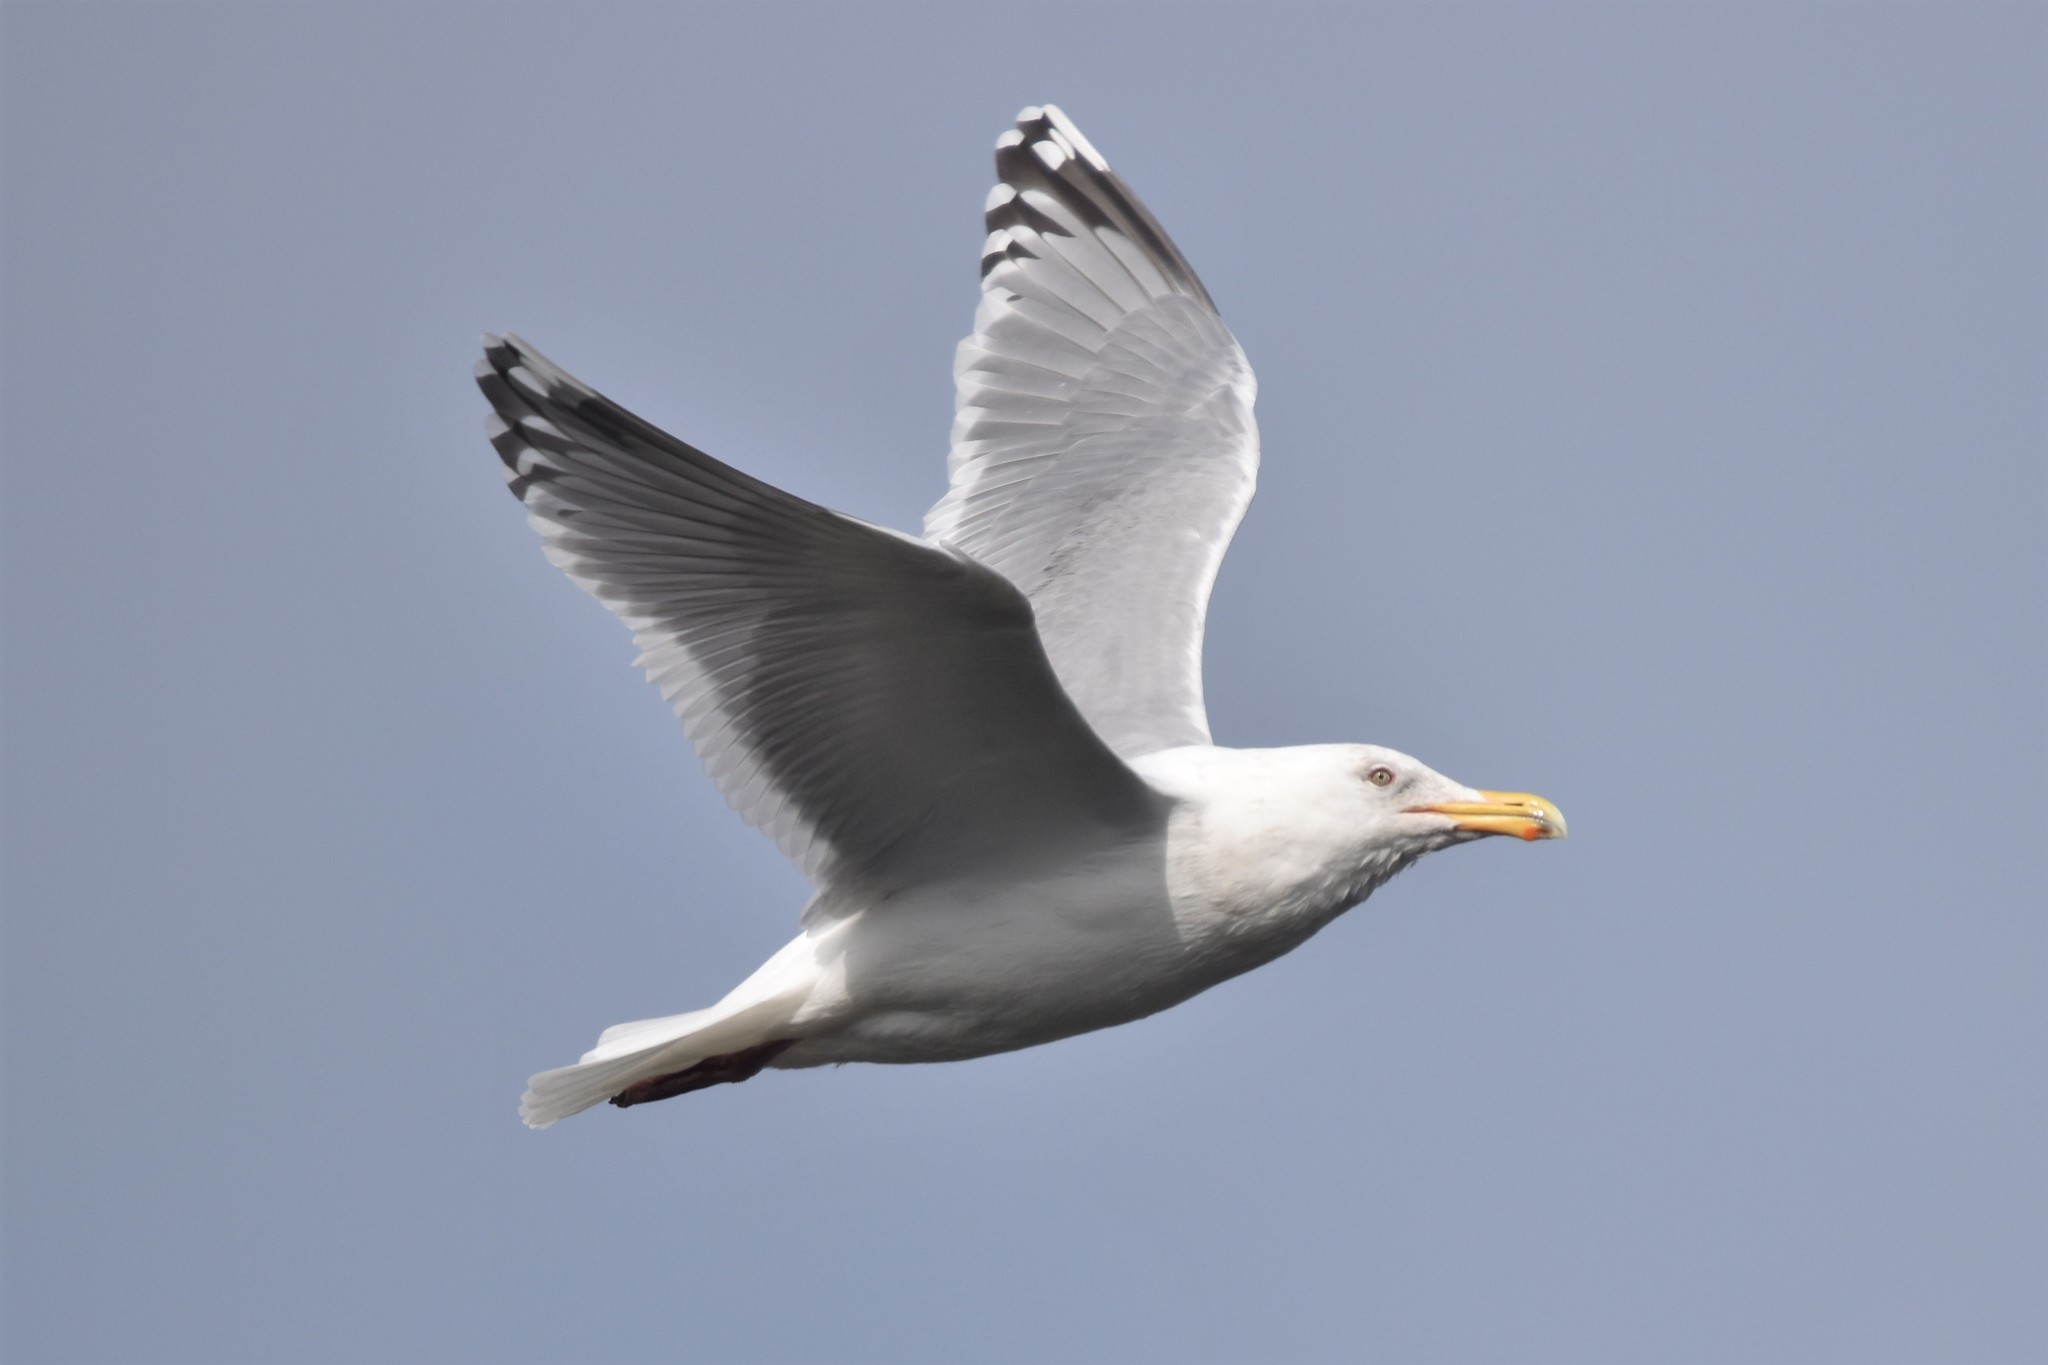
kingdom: Animalia
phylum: Chordata
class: Aves
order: Charadriiformes
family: Laridae
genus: Larus
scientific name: Larus argentatus
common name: Herring gull
